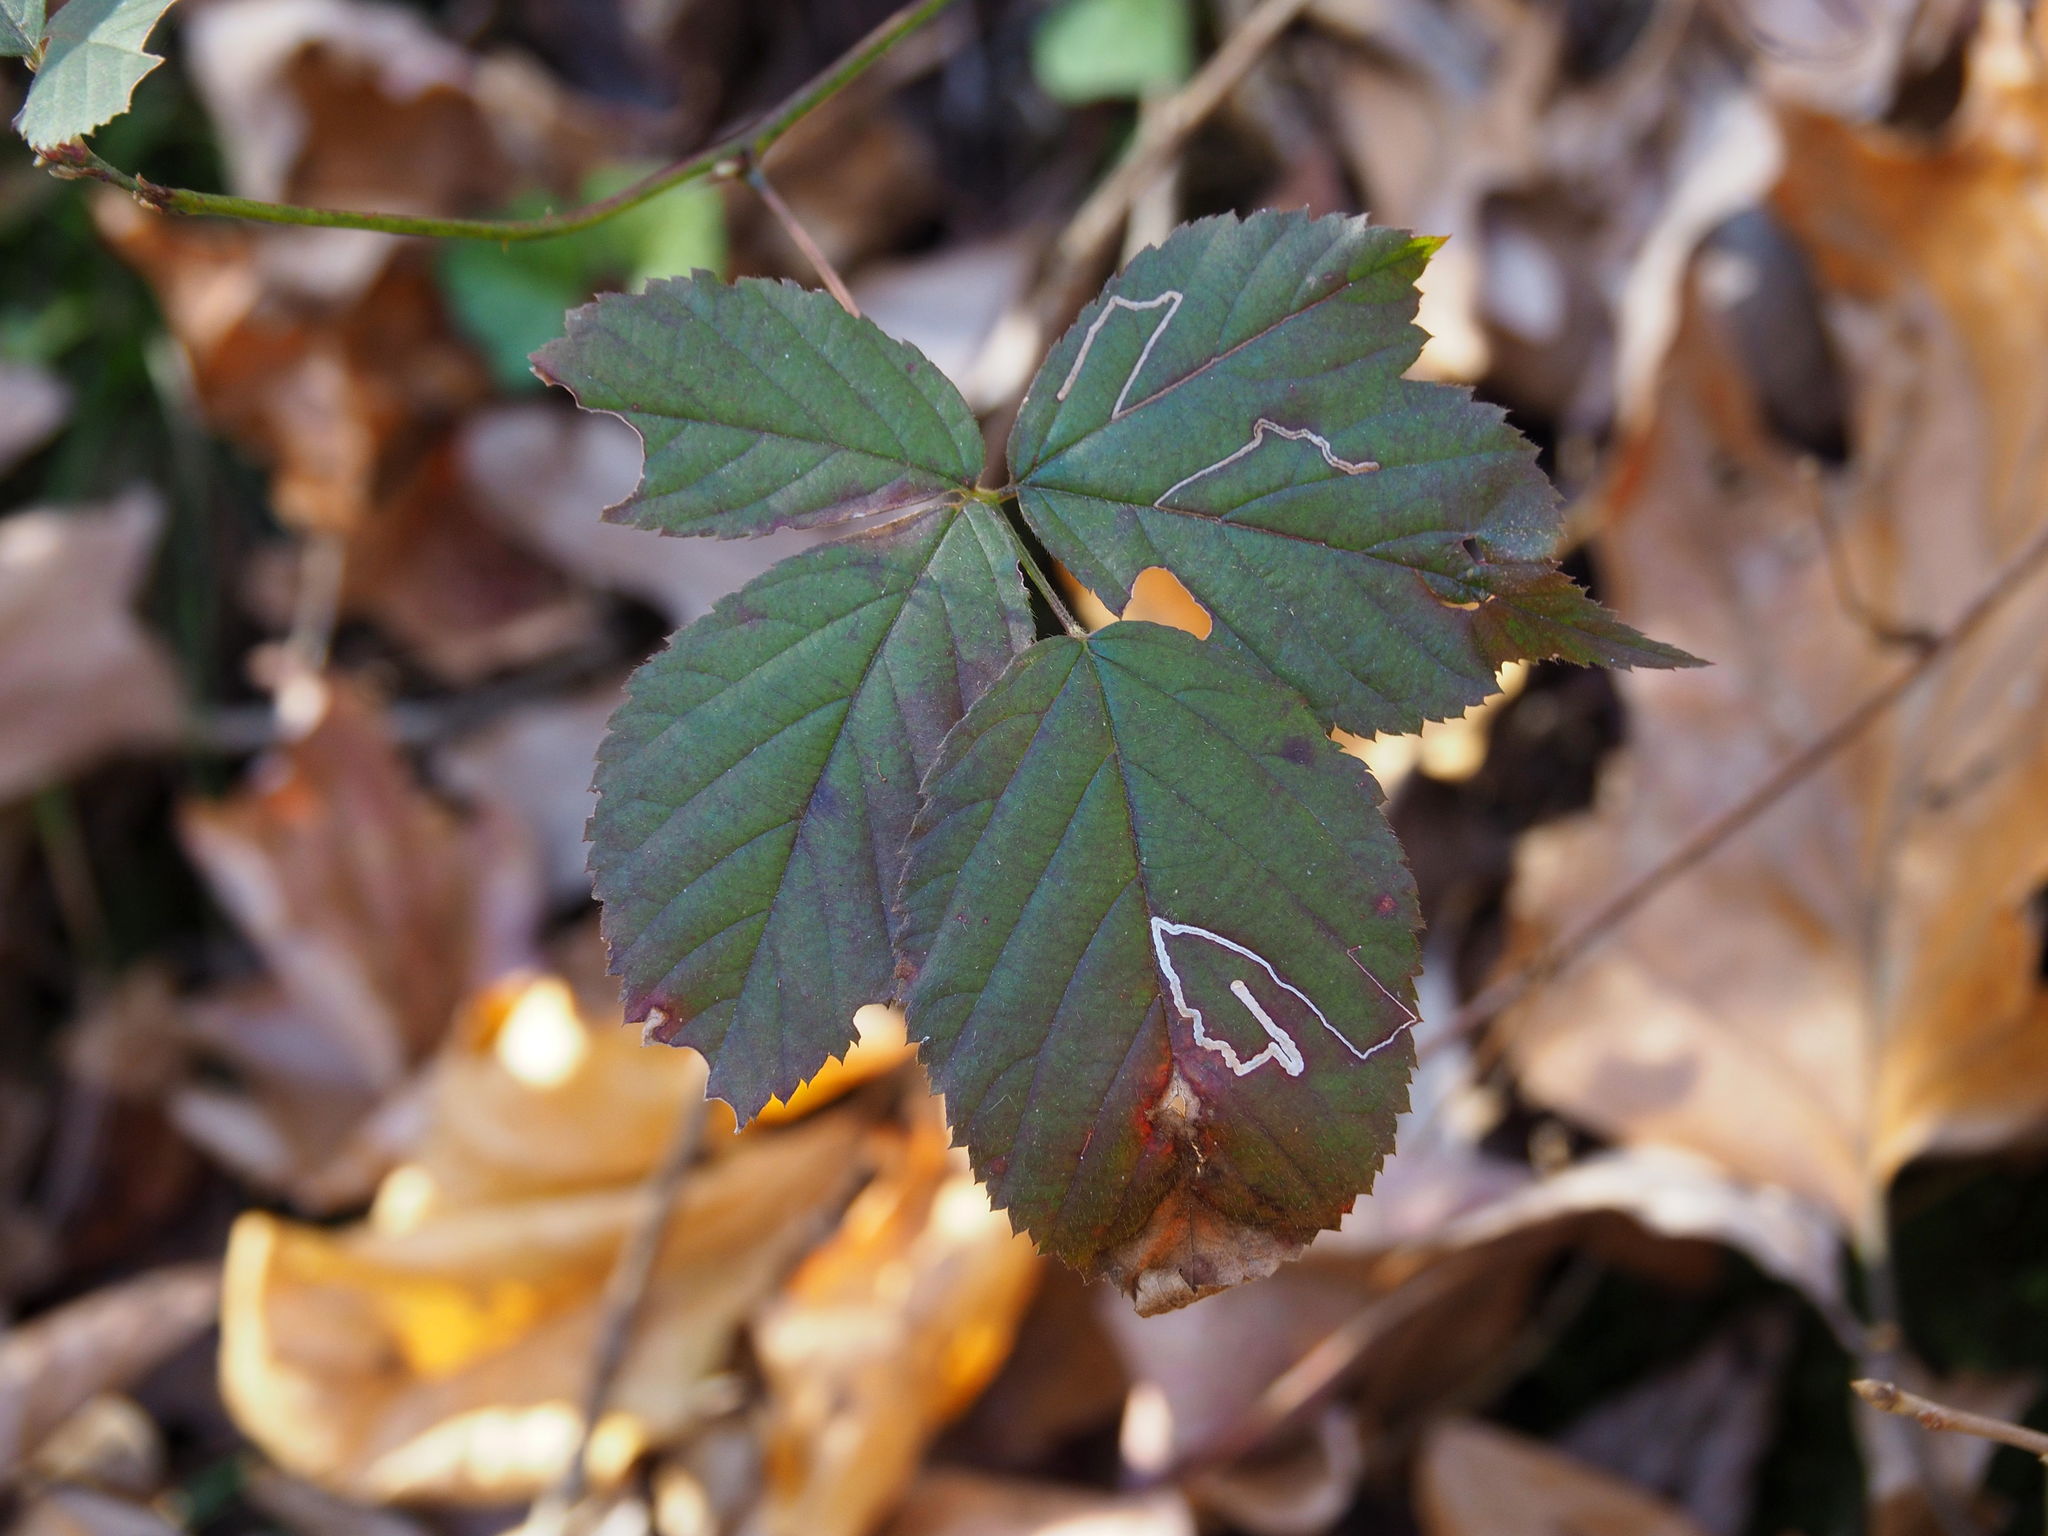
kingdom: Animalia
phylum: Arthropoda
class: Insecta
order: Lepidoptera
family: Nepticulidae
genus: Stigmella
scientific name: Stigmella villosella
